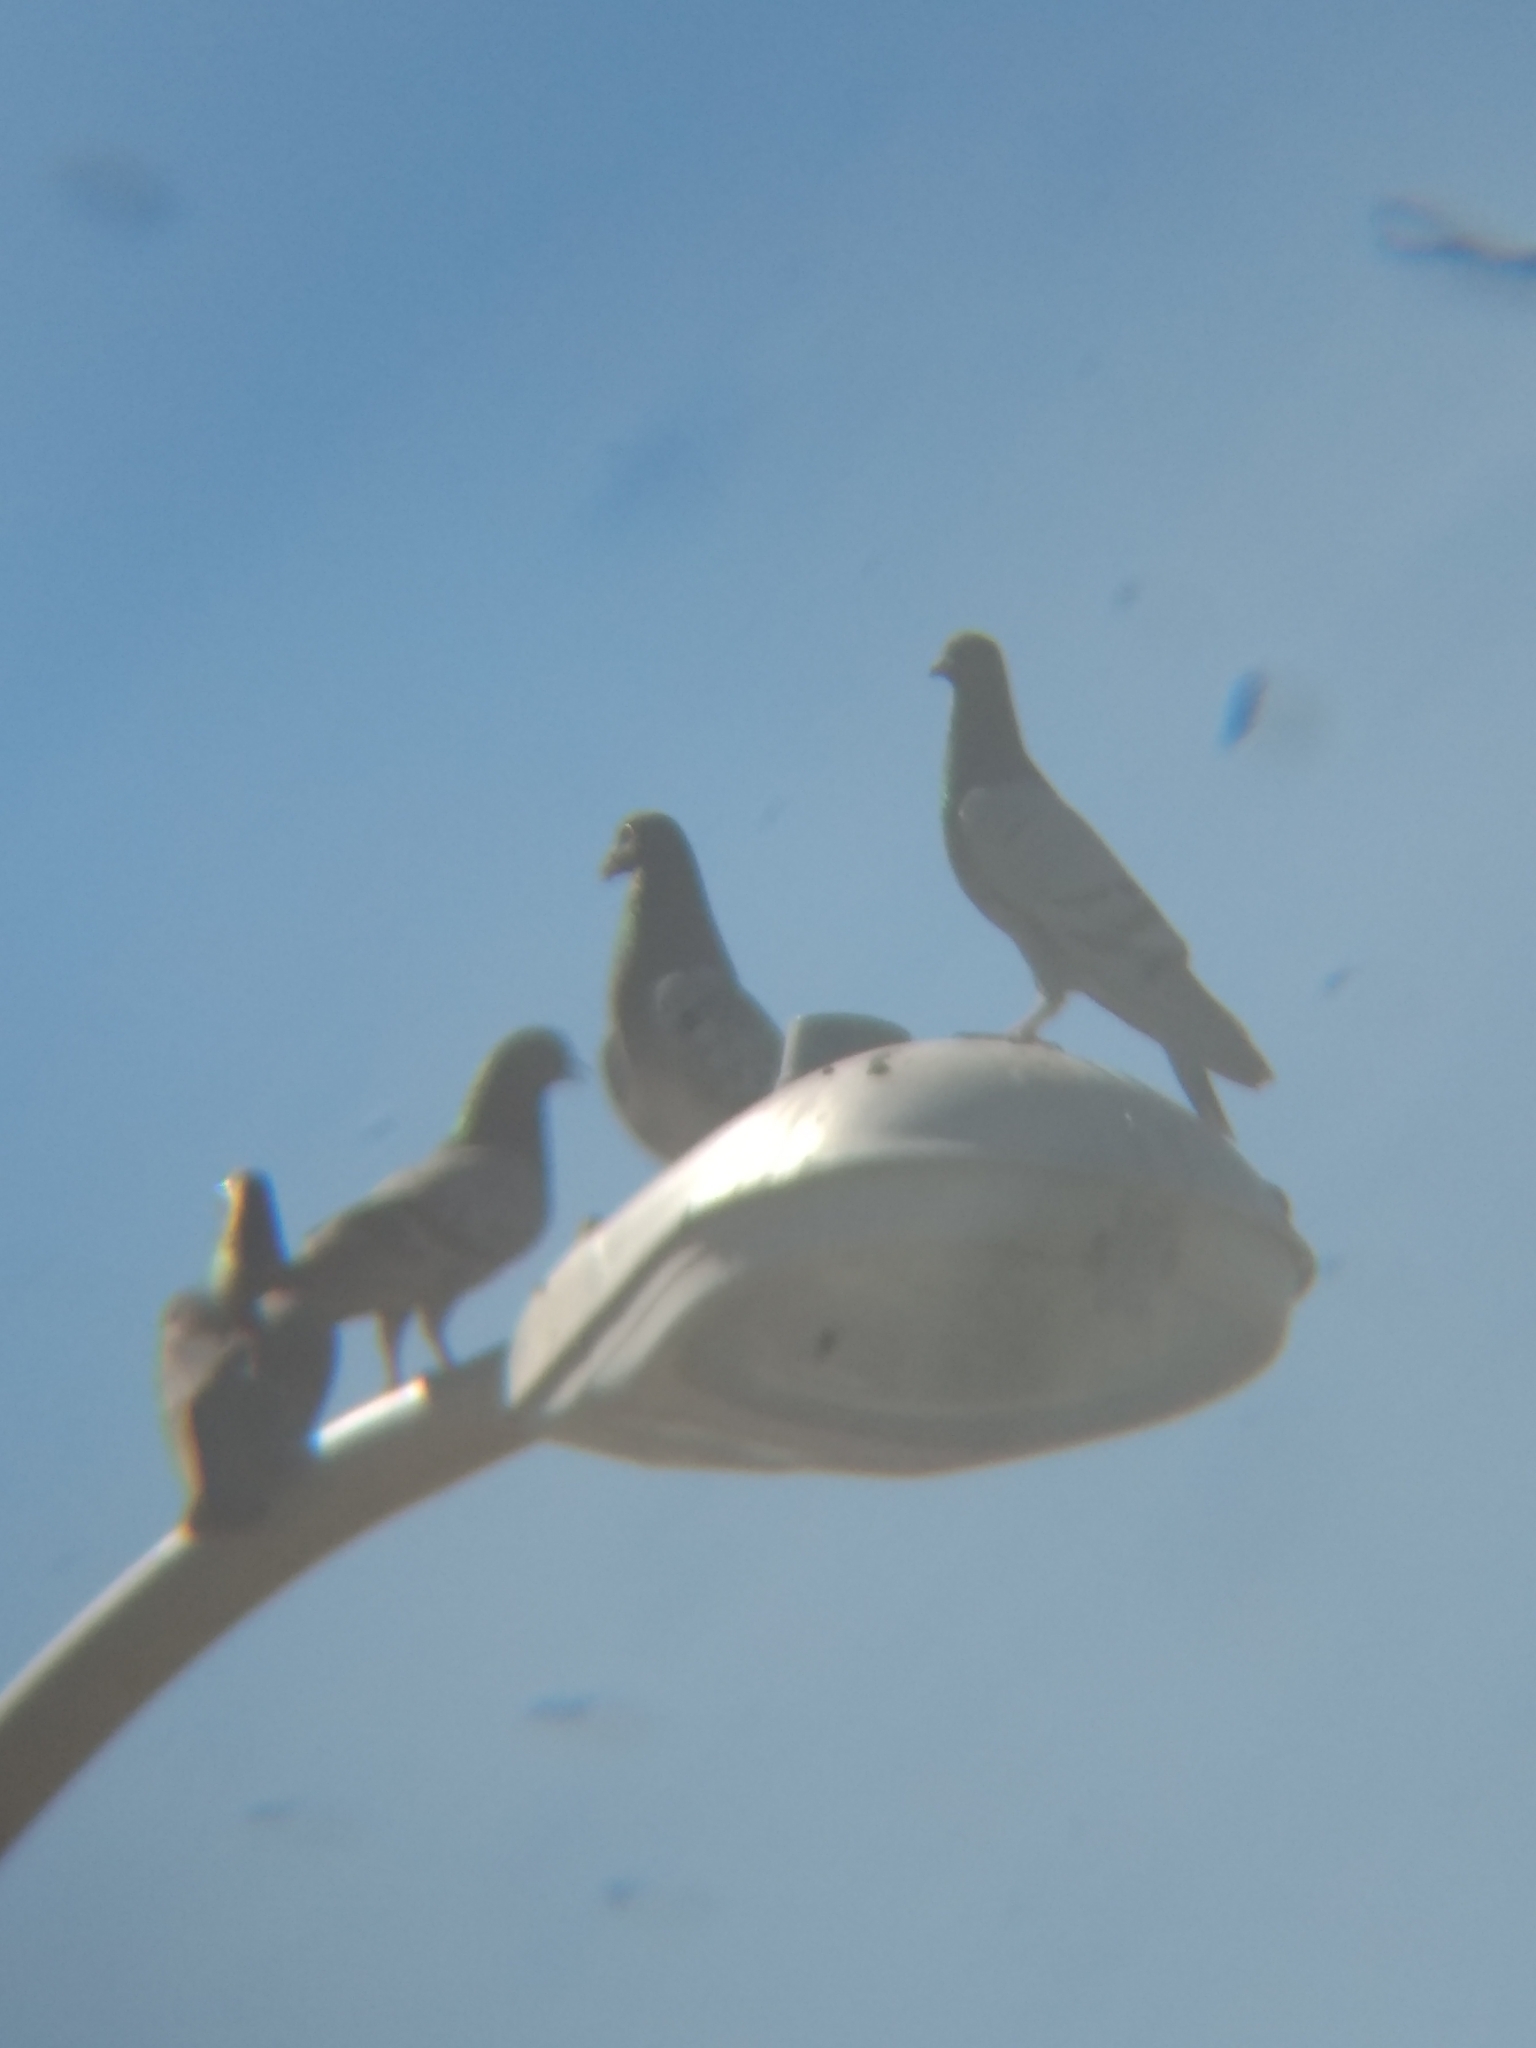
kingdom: Animalia
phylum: Chordata
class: Aves
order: Columbiformes
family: Columbidae
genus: Columba
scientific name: Columba livia
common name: Rock pigeon
